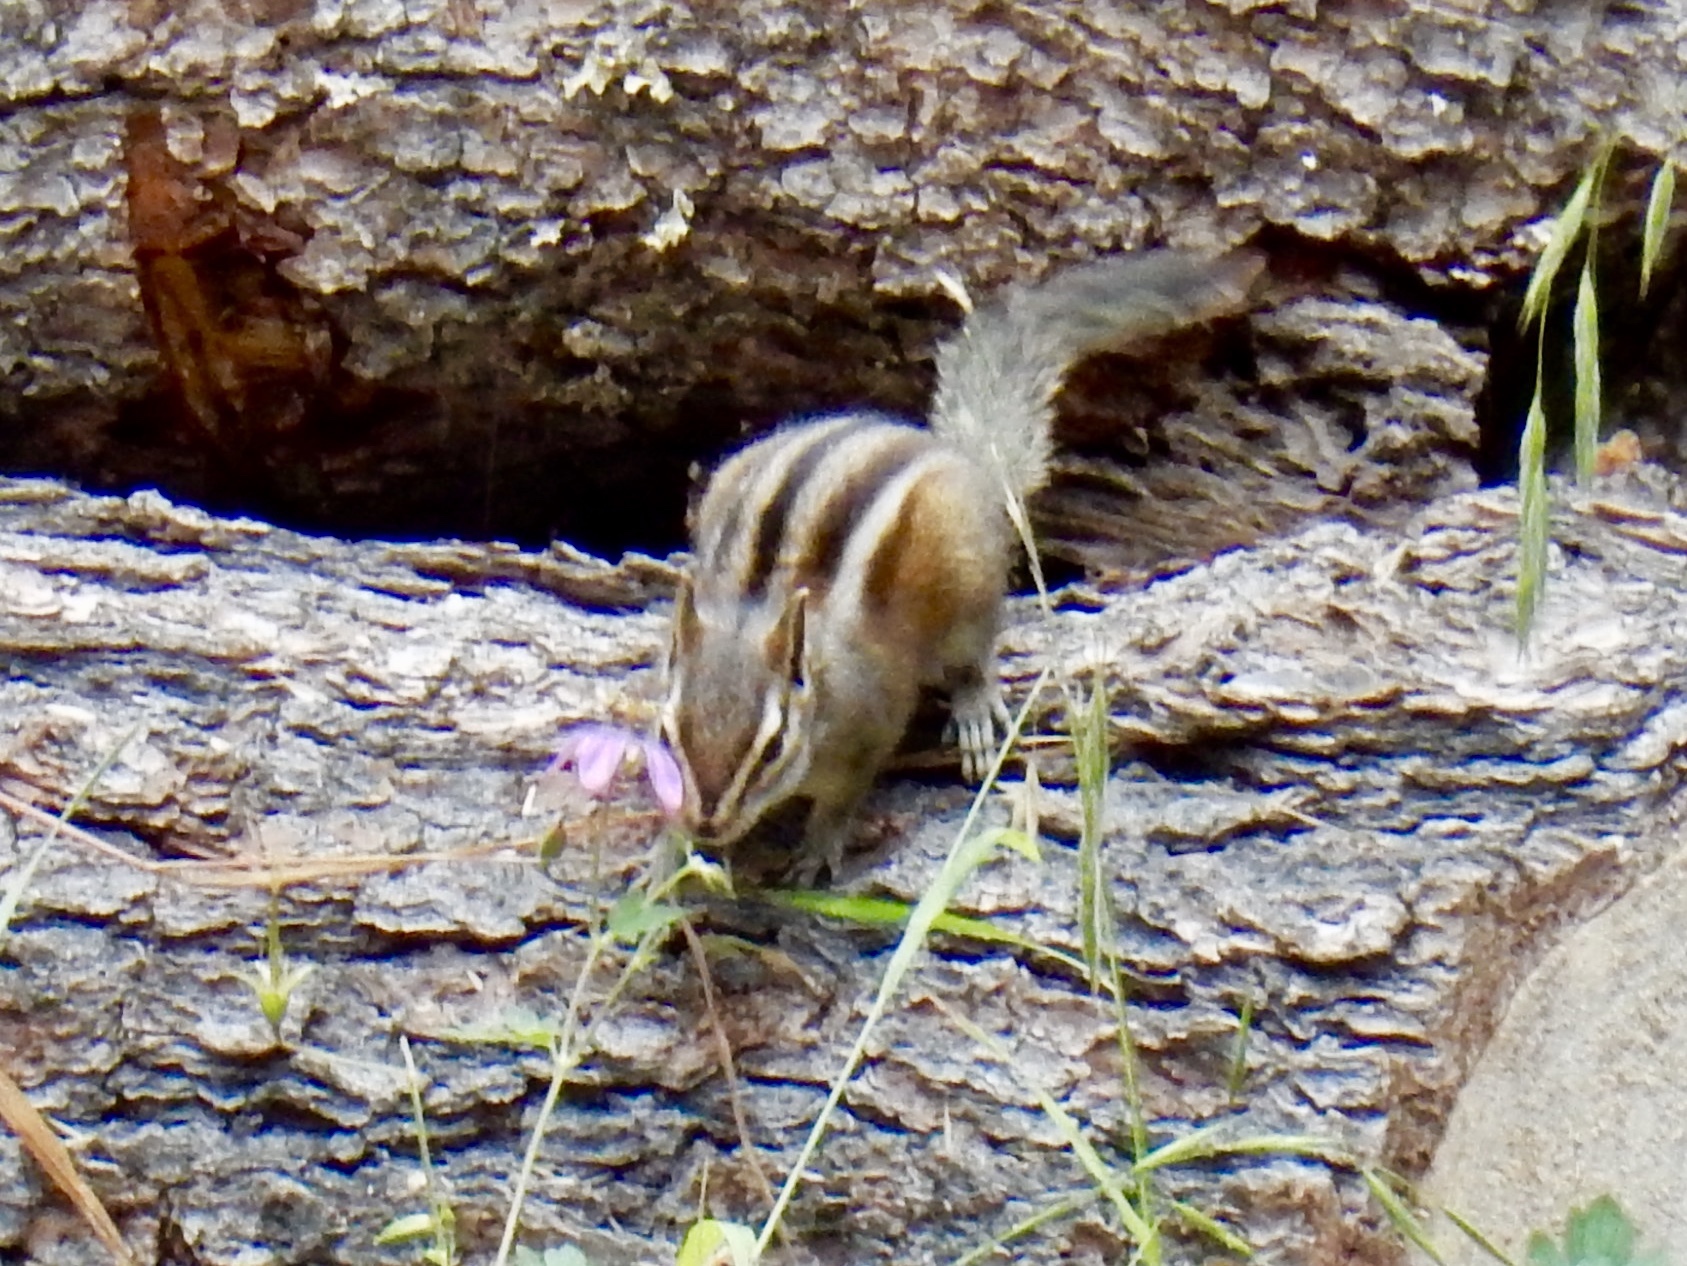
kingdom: Animalia
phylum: Chordata
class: Mammalia
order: Rodentia
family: Sciuridae
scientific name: Sciuridae
